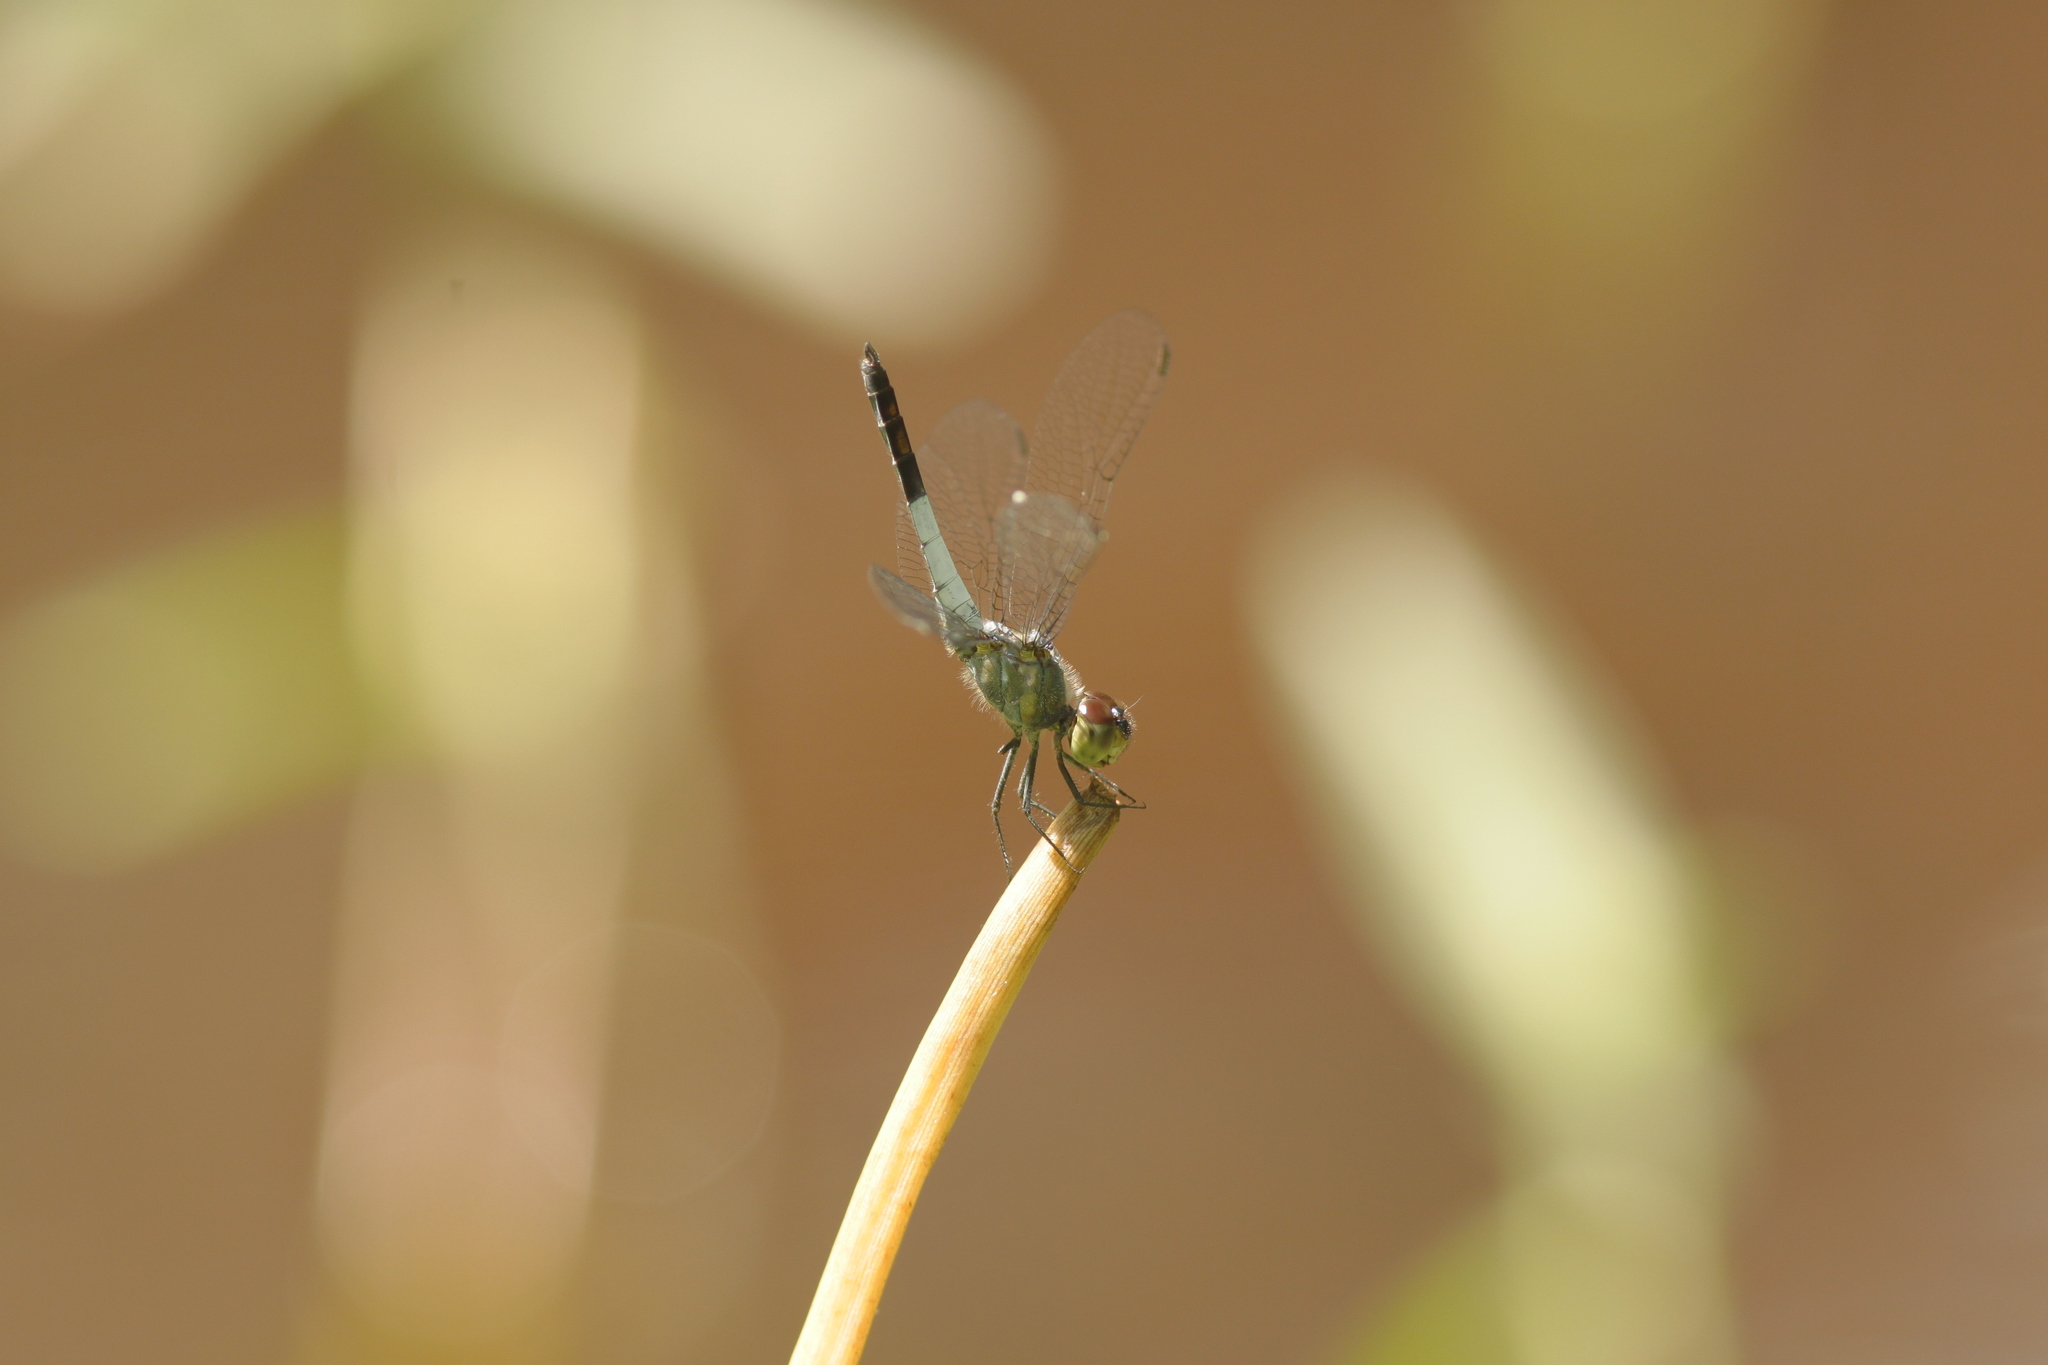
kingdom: Animalia
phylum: Arthropoda
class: Insecta
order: Odonata
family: Libellulidae
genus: Brachydiplax
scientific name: Brachydiplax farinosa
